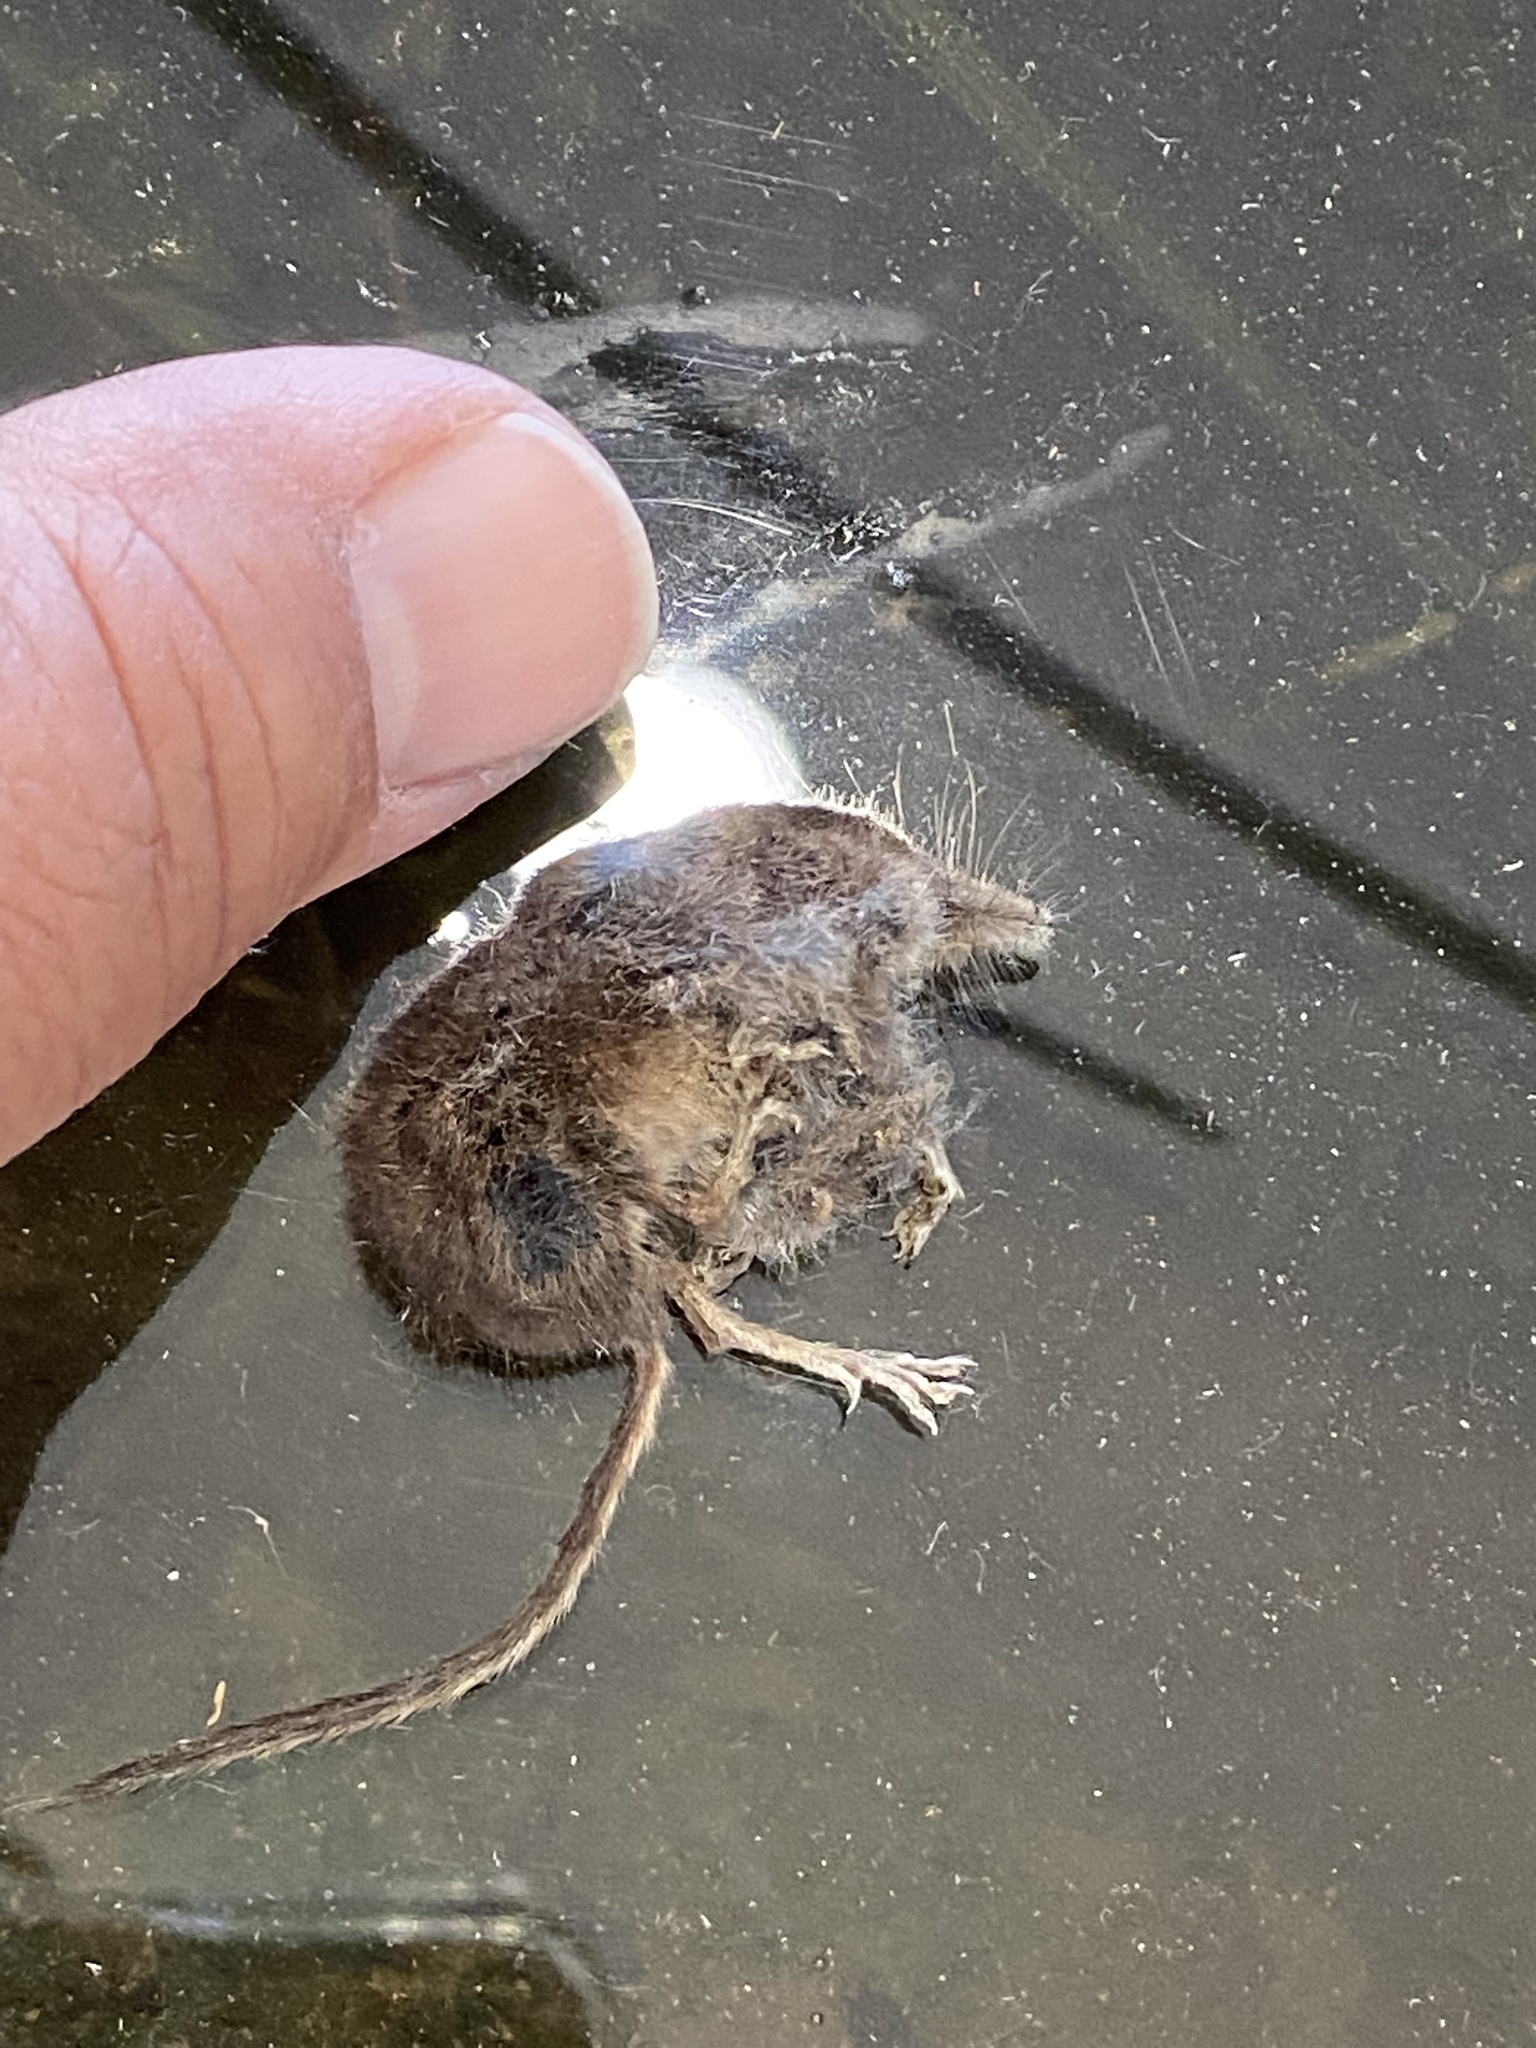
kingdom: Animalia
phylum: Chordata
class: Mammalia
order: Soricomorpha
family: Soricidae
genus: Sorex
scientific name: Sorex cinereus
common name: Cinereus shrew
